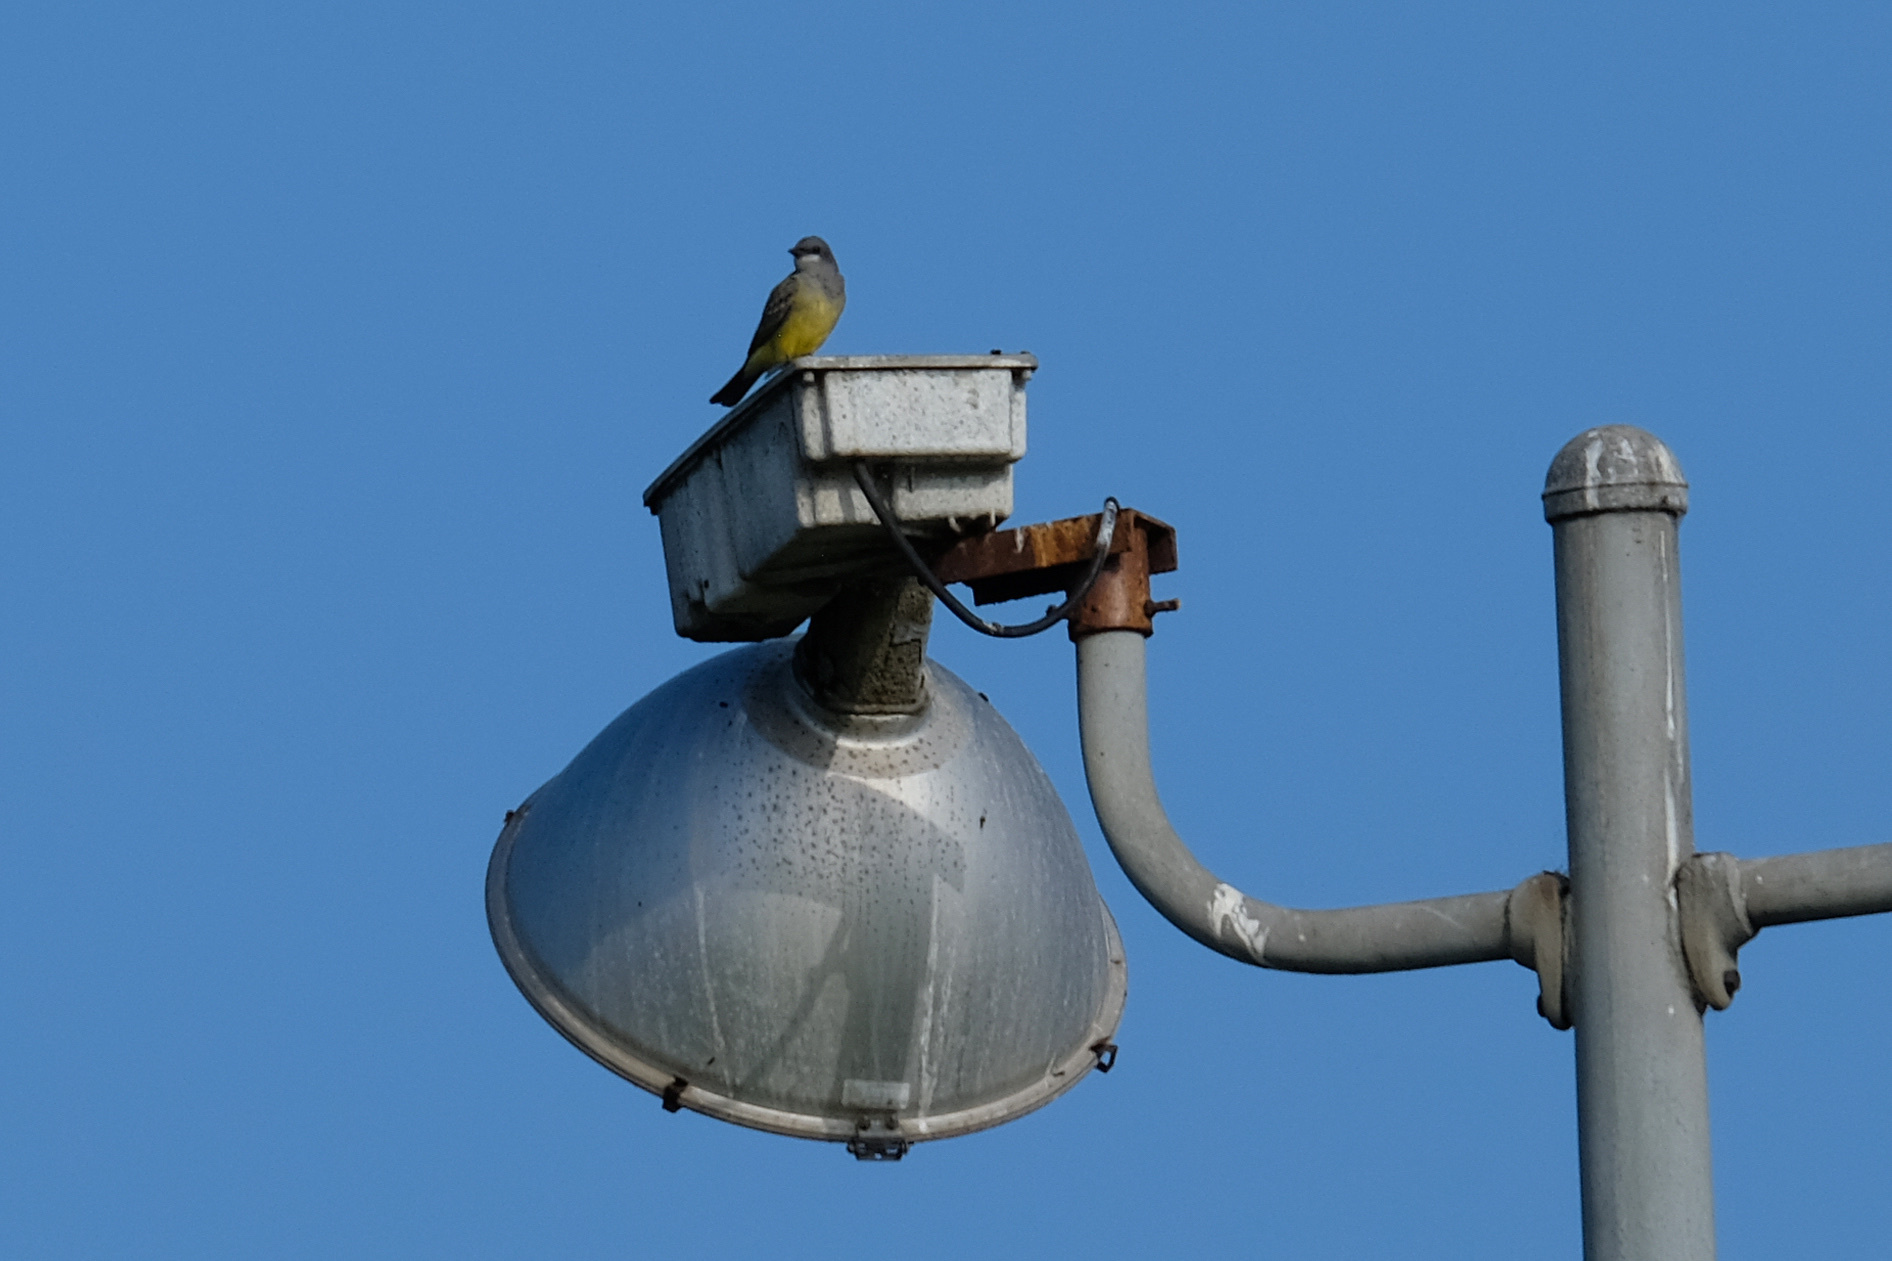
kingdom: Animalia
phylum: Chordata
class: Aves
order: Passeriformes
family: Tyrannidae
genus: Tyrannus
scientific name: Tyrannus vociferans
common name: Cassin's kingbird
